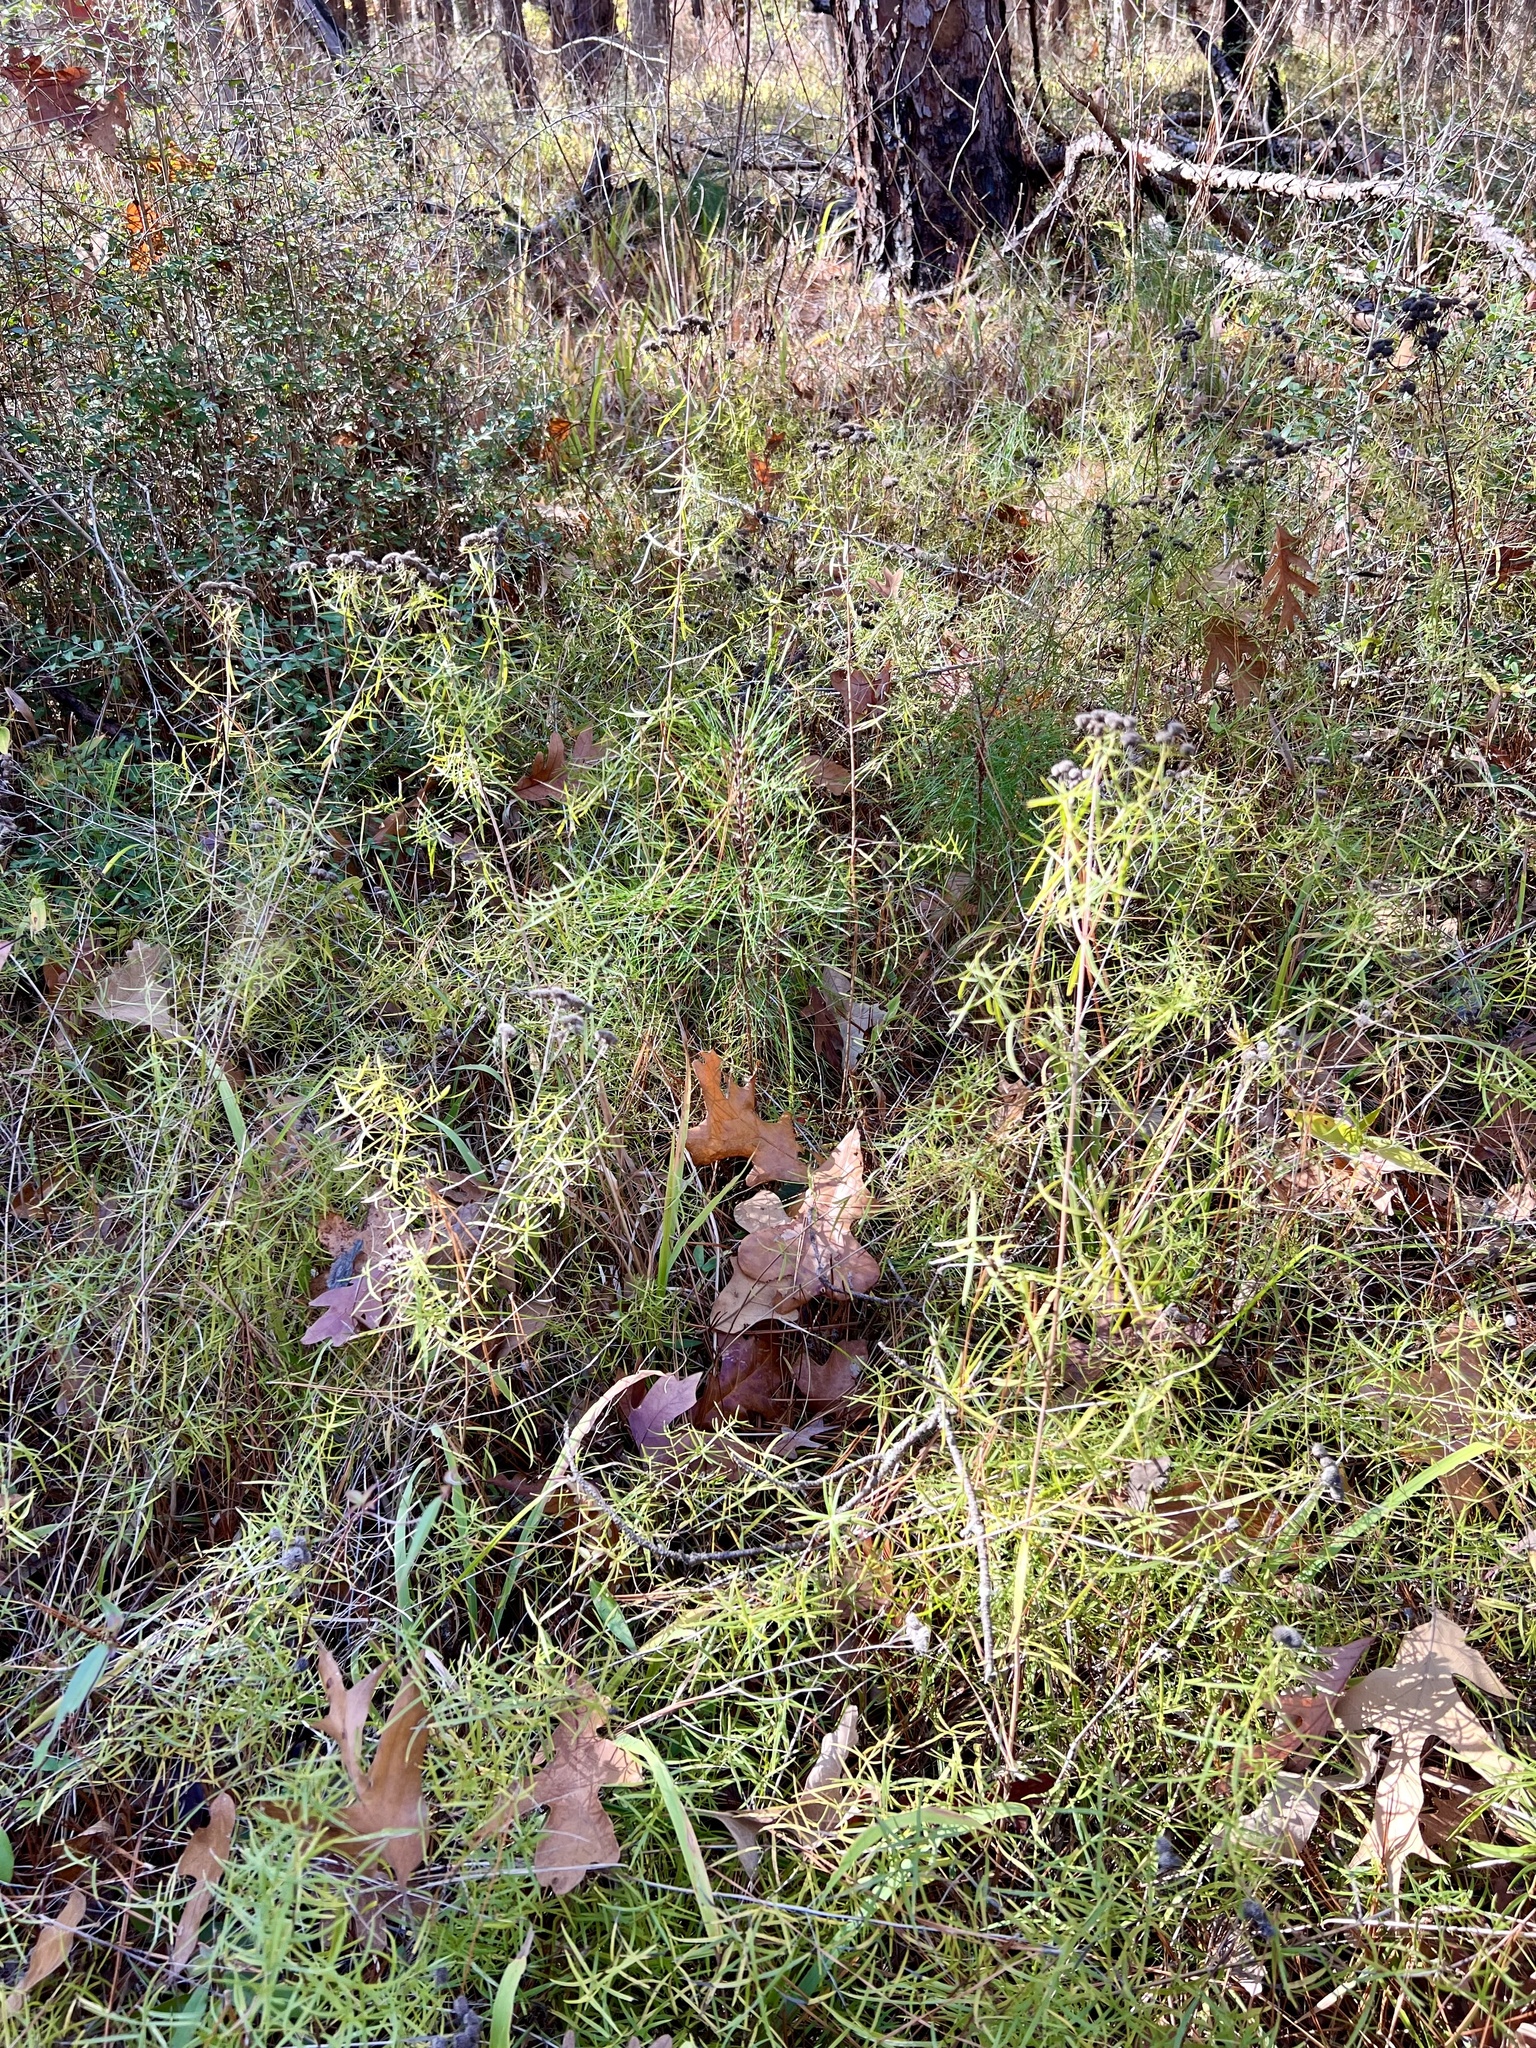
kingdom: Plantae
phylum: Tracheophyta
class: Magnoliopsida
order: Lamiales
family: Lamiaceae
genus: Pycnanthemum
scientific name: Pycnanthemum tenuifolium
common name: Narrow-leaf mountain-mint
